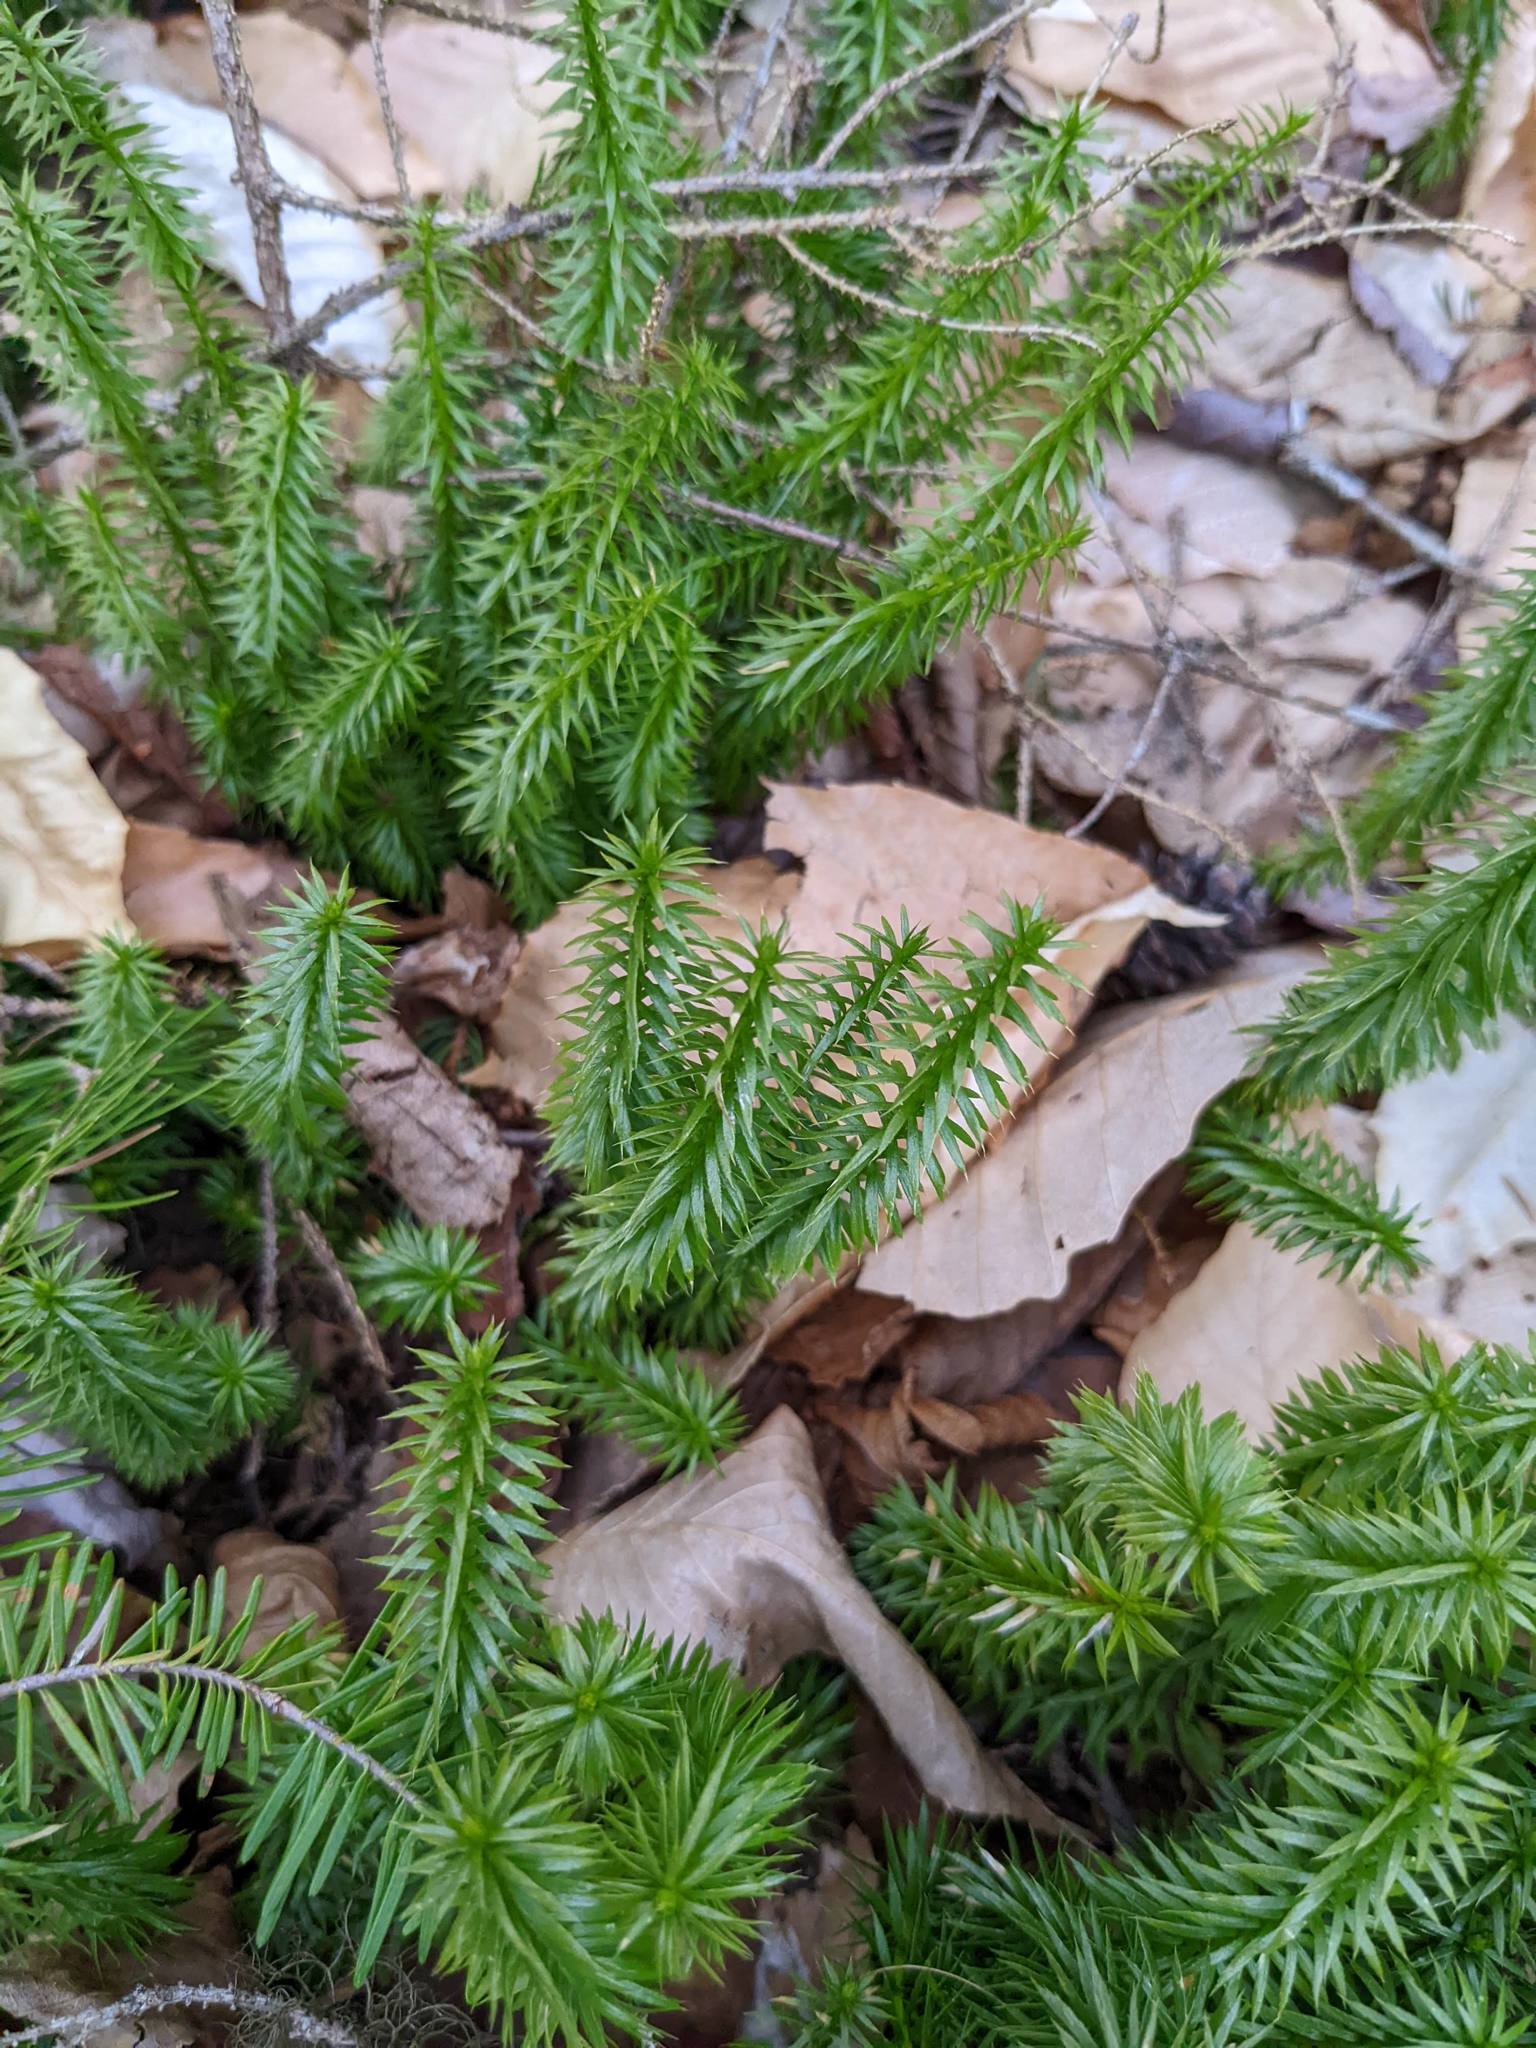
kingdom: Plantae
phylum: Tracheophyta
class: Lycopodiopsida
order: Lycopodiales
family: Lycopodiaceae
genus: Spinulum
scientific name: Spinulum annotinum
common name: Interrupted club-moss
